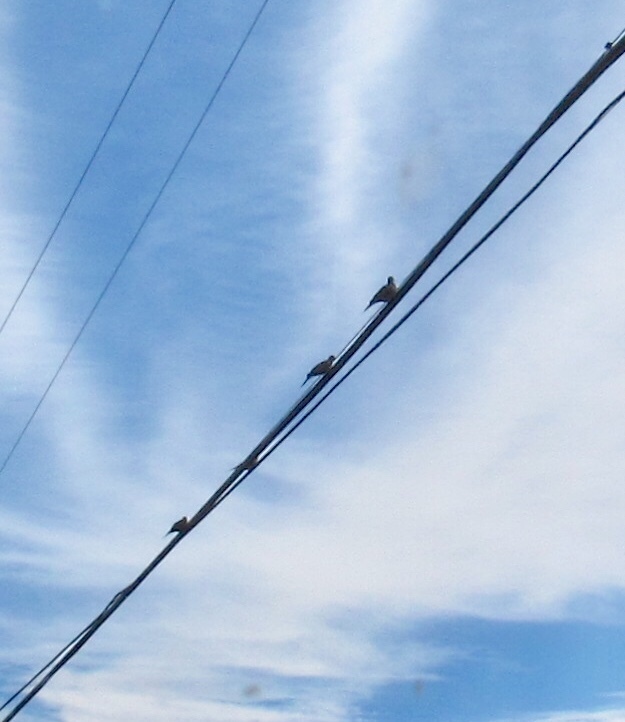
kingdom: Animalia
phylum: Chordata
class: Aves
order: Columbiformes
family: Columbidae
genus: Zenaida
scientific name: Zenaida macroura
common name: Mourning dove
